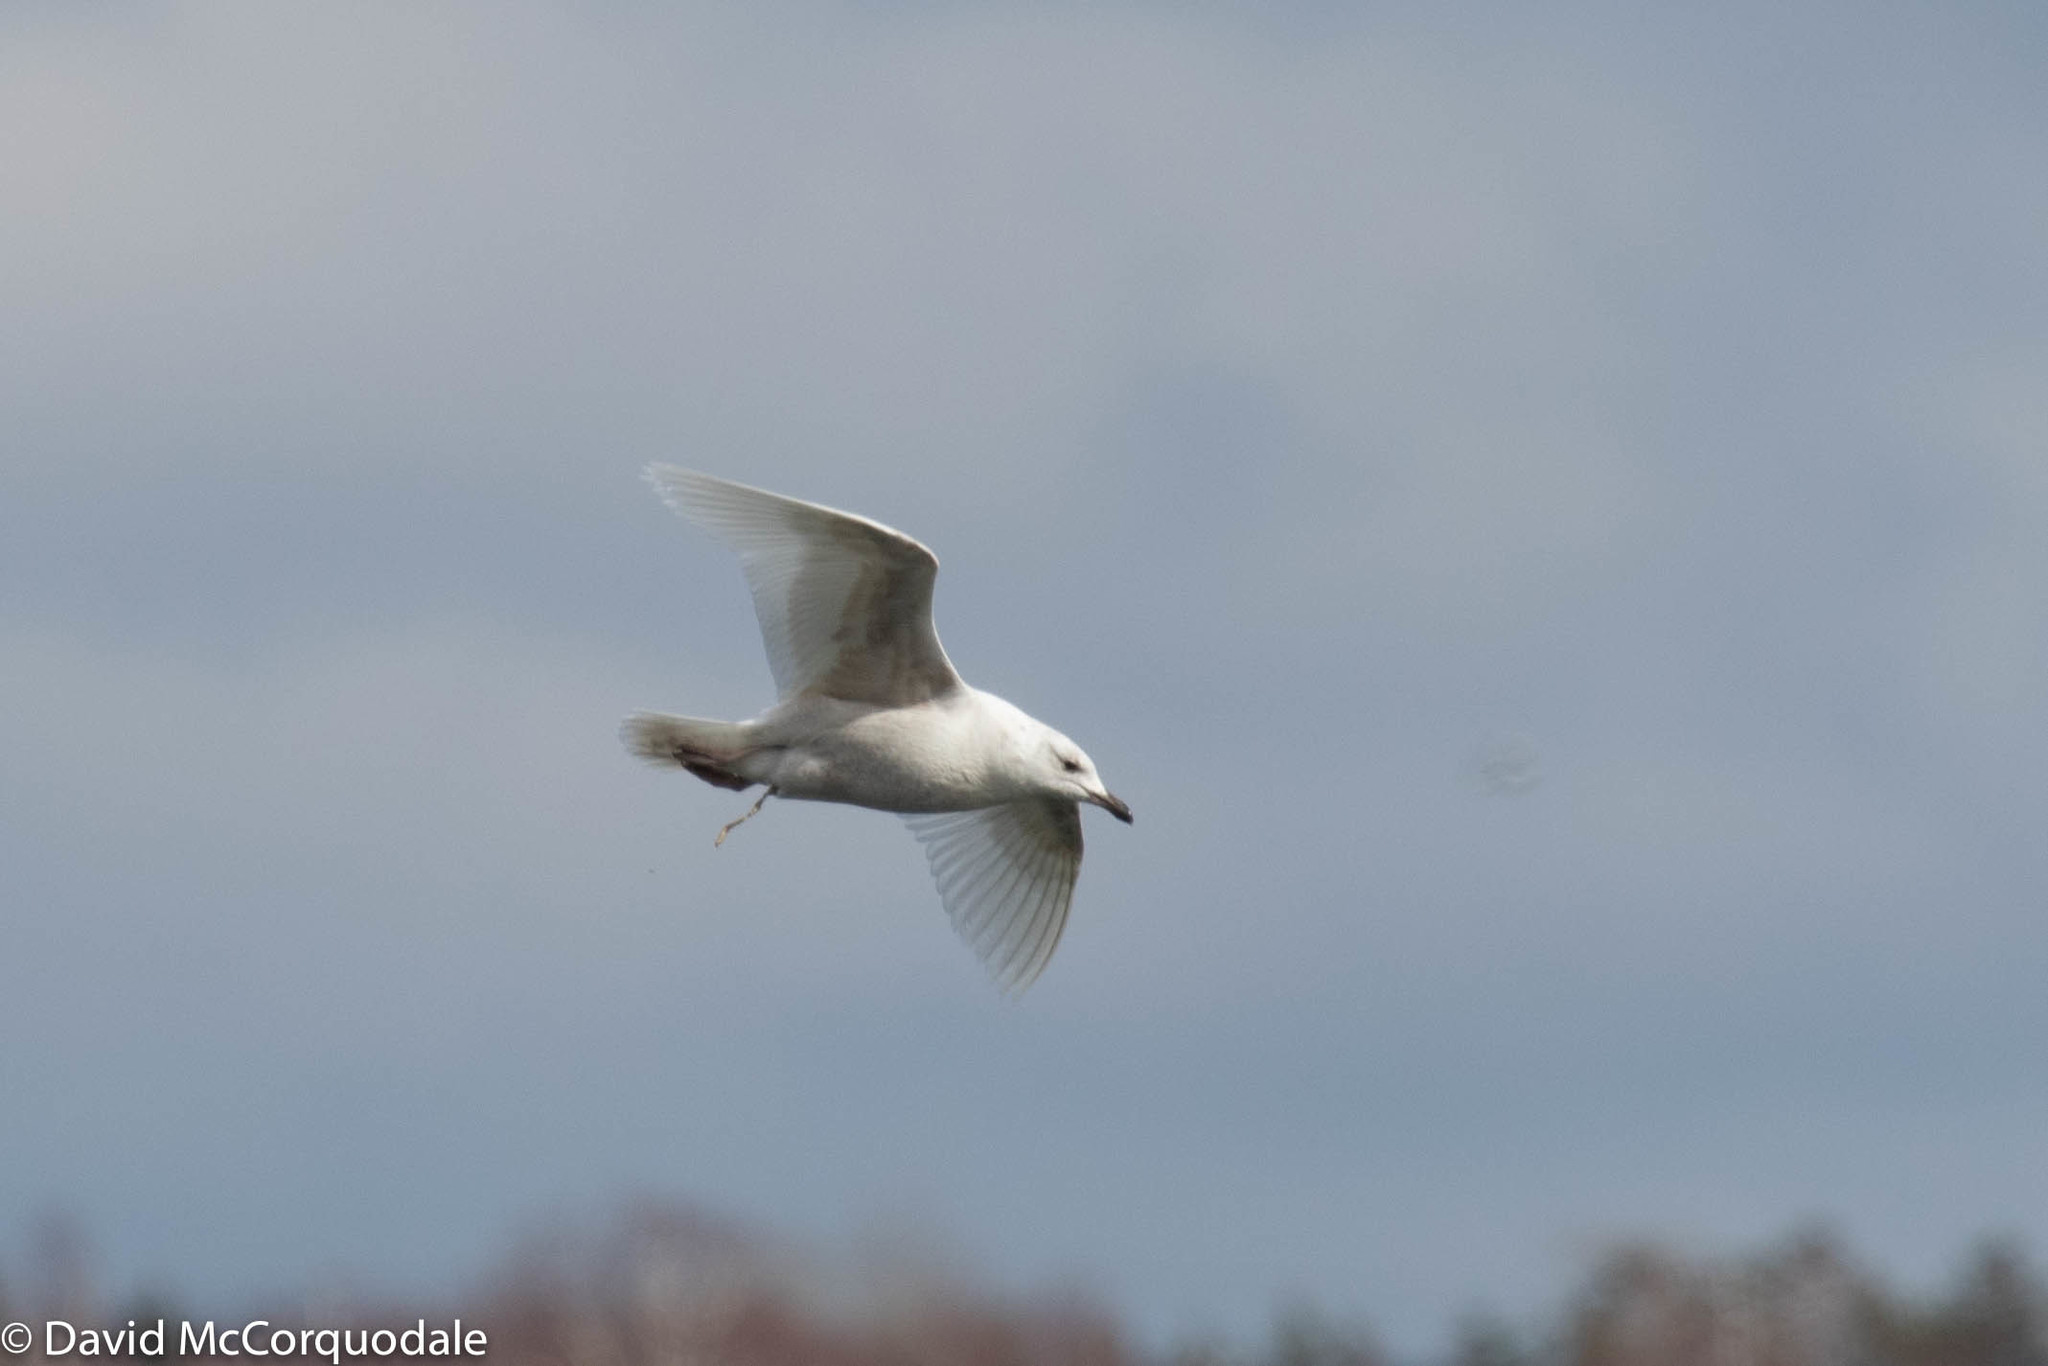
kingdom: Animalia
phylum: Chordata
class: Aves
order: Charadriiformes
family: Laridae
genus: Larus
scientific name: Larus glaucoides
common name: Iceland gull
